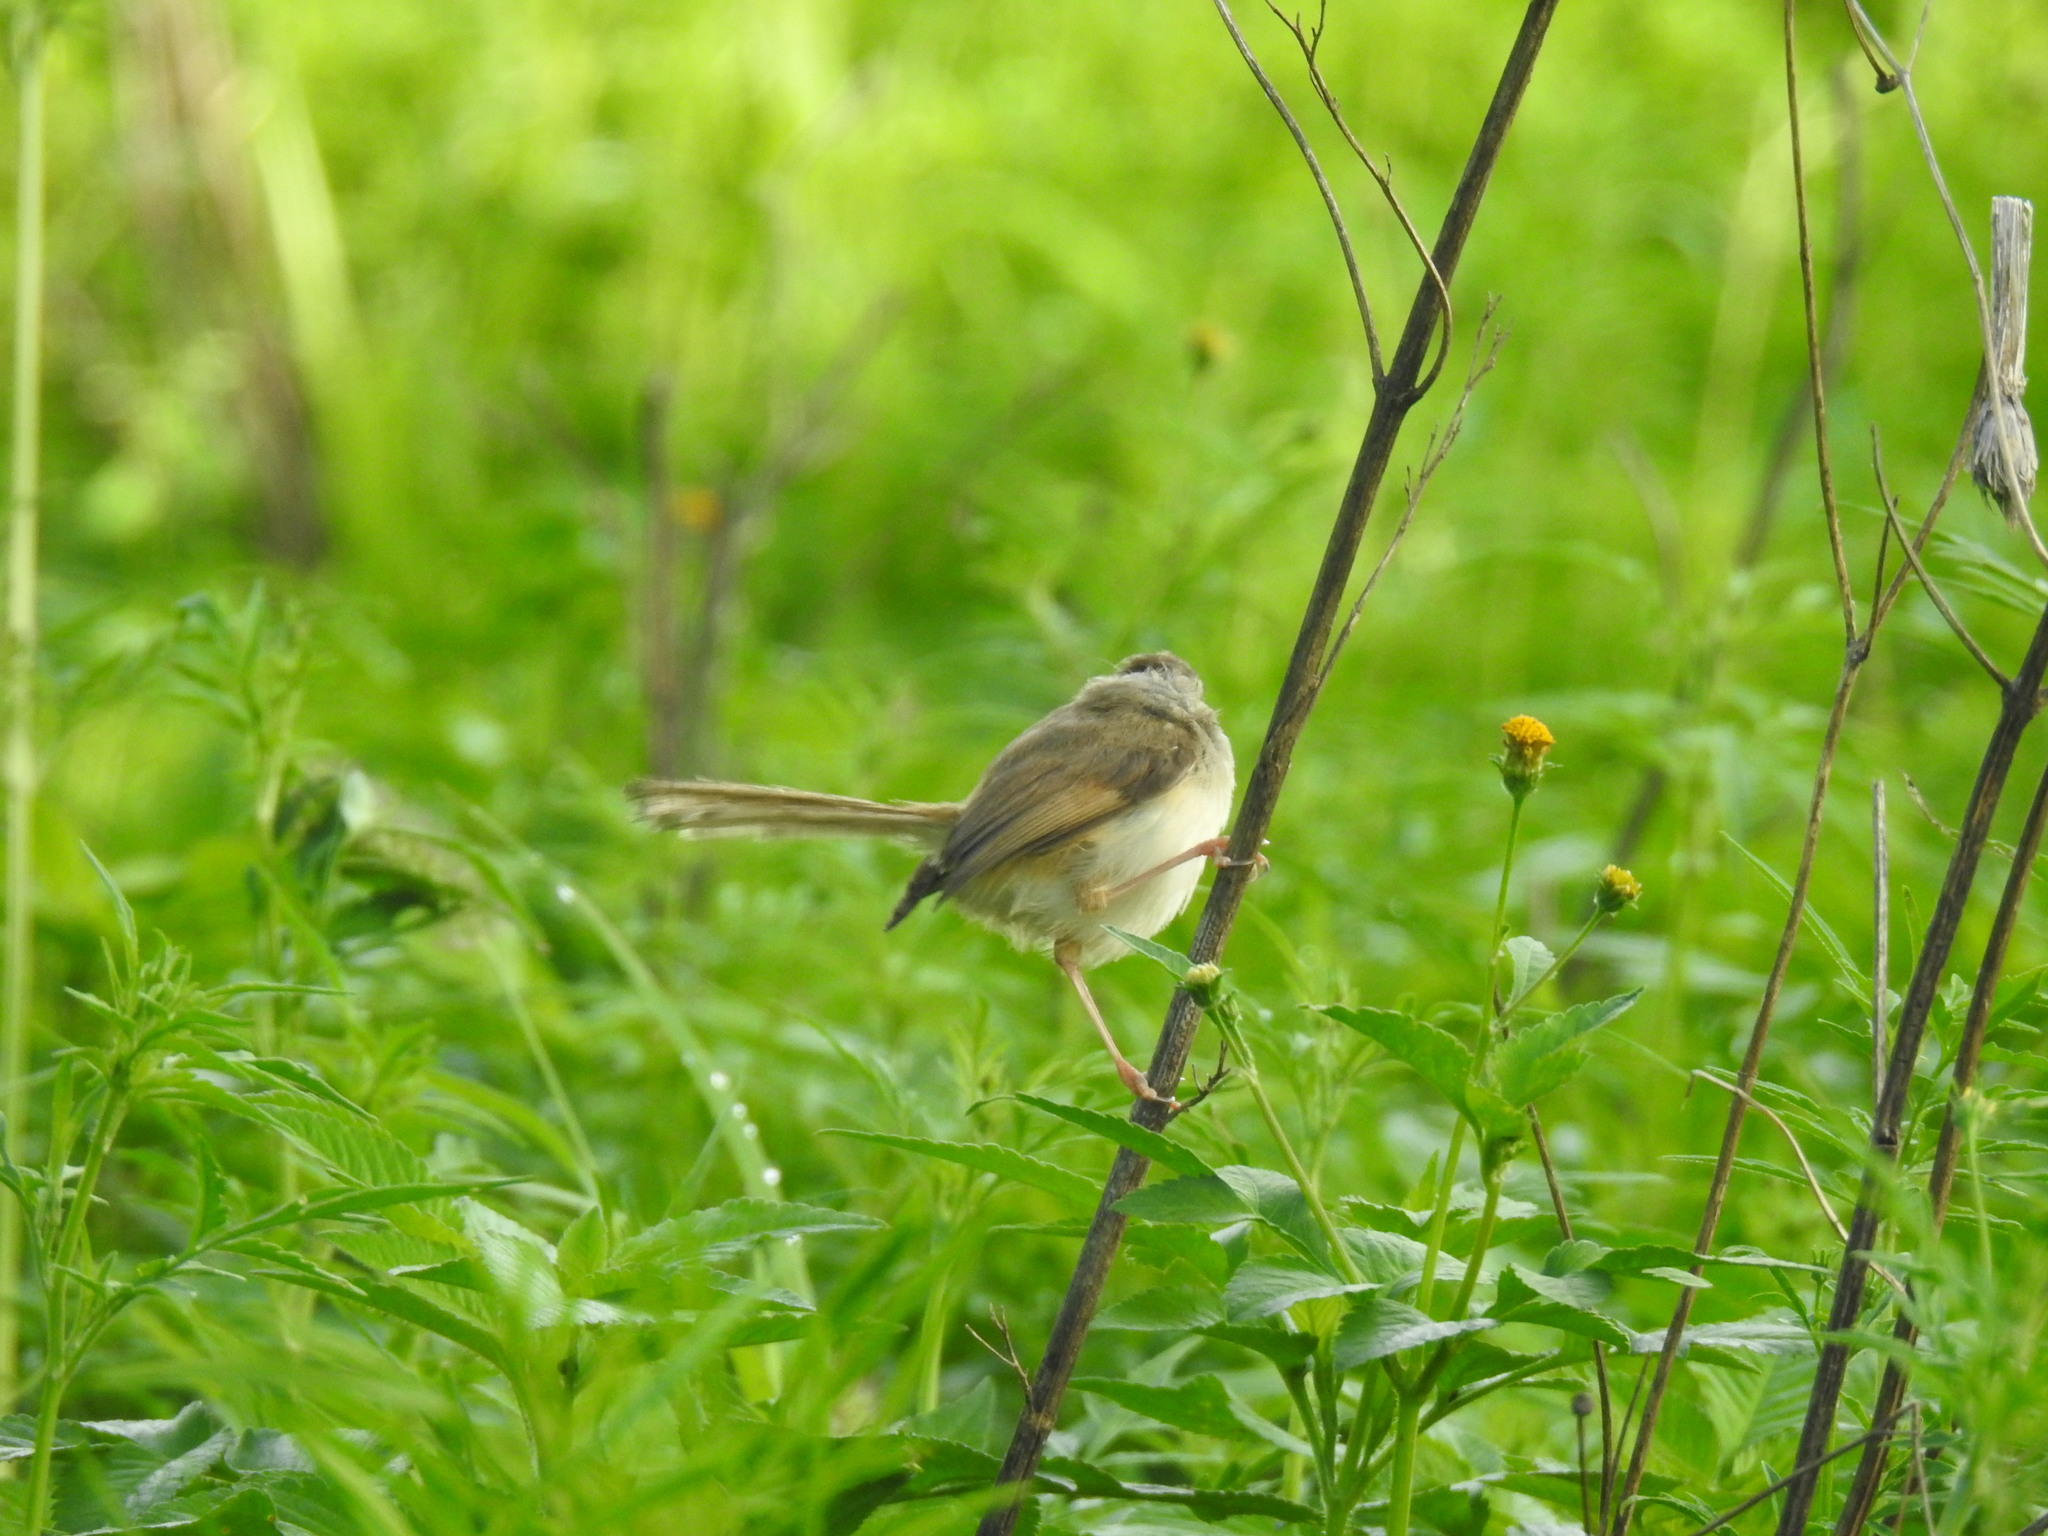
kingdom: Animalia
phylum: Chordata
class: Aves
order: Passeriformes
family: Cisticolidae
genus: Prinia
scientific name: Prinia subflava
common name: Tawny-flanked prinia
